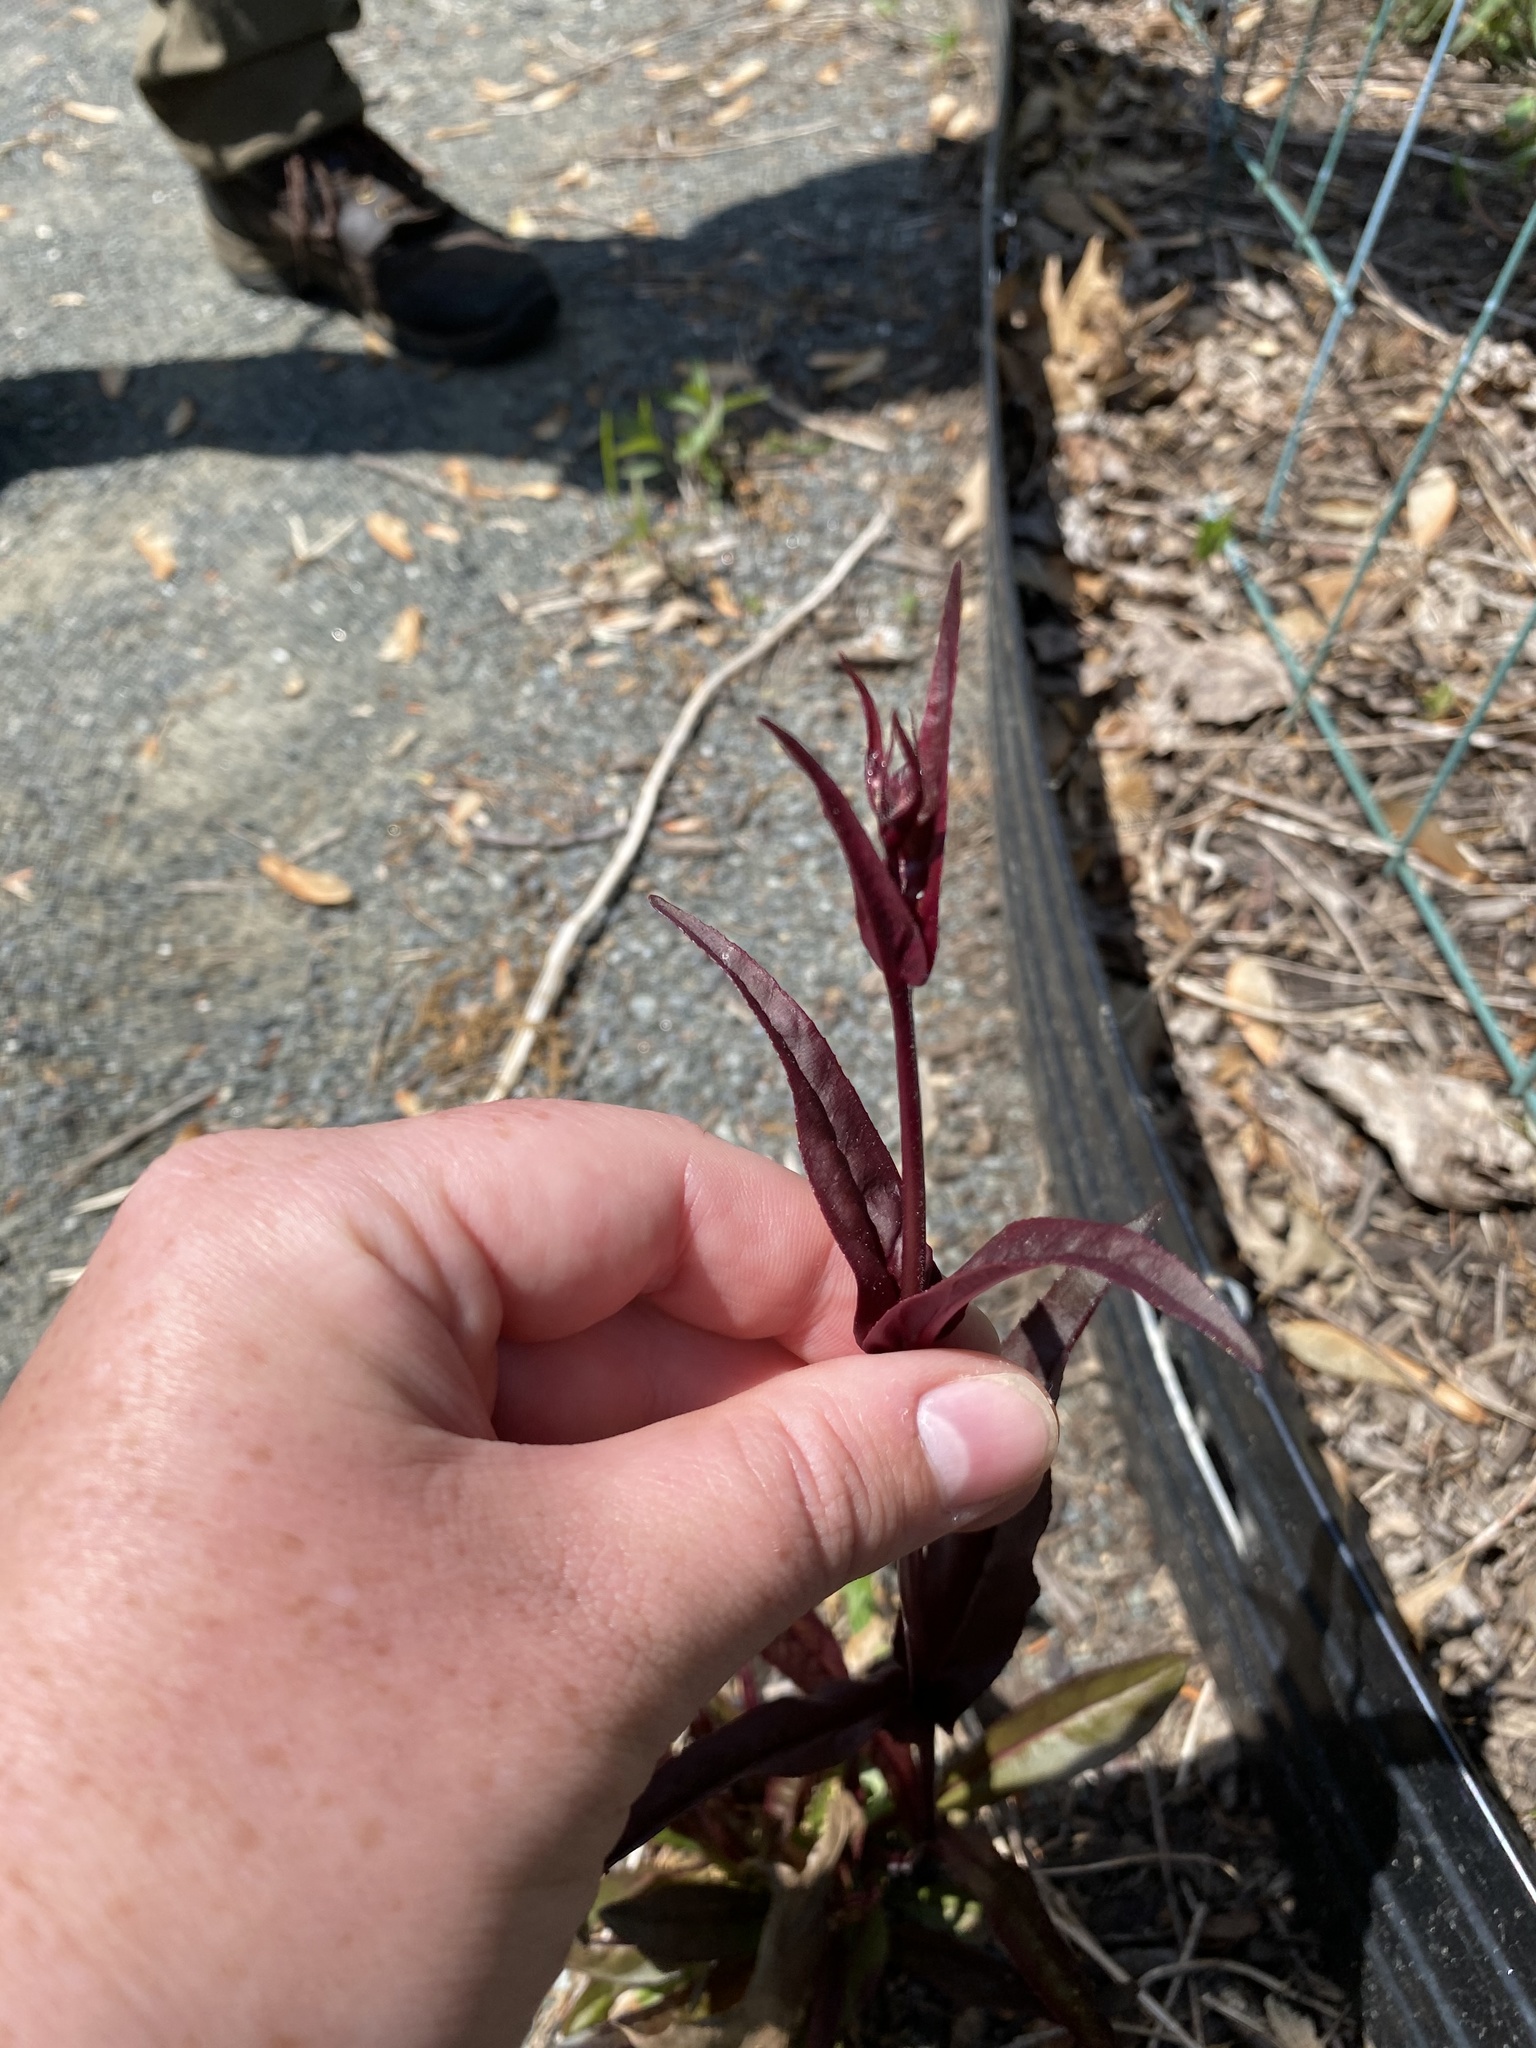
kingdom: Plantae
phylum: Tracheophyta
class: Magnoliopsida
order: Lamiales
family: Plantaginaceae
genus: Penstemon
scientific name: Penstemon digitalis
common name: Foxglove beardtongue
